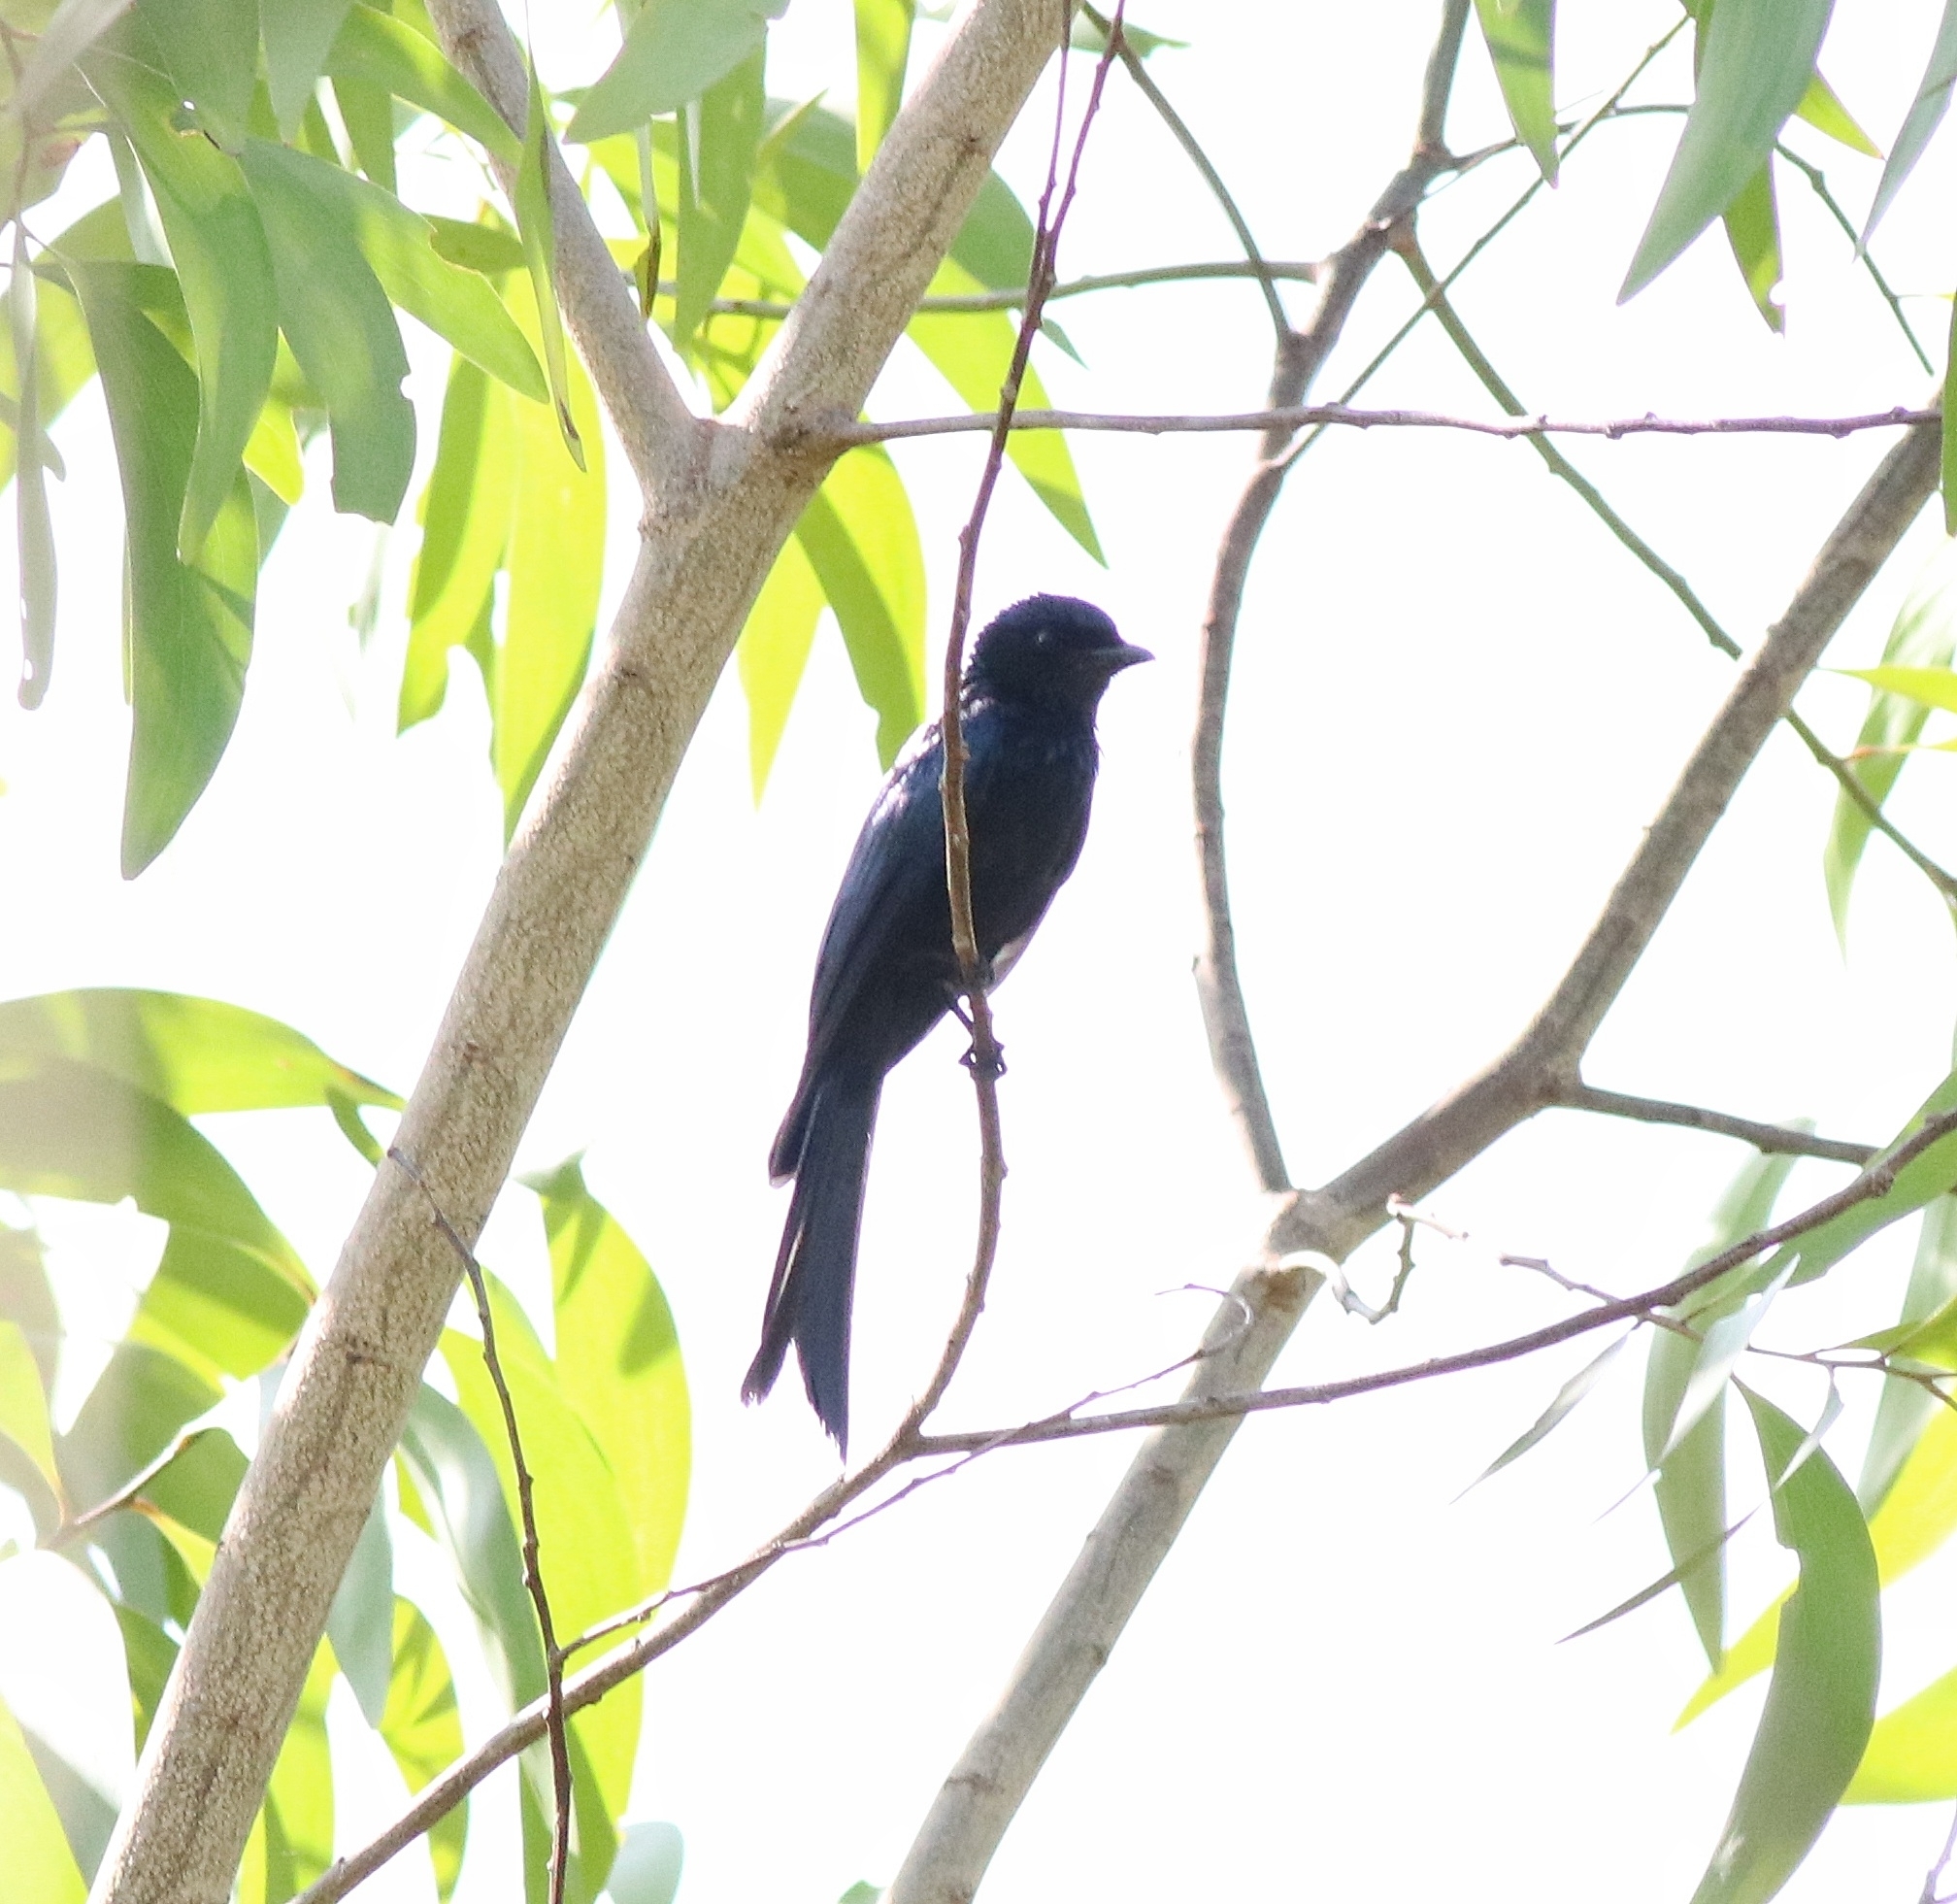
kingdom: Animalia
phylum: Chordata
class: Aves
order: Passeriformes
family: Dicruridae
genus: Dicrurus
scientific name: Dicrurus aeneus
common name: Bronzed drongo
